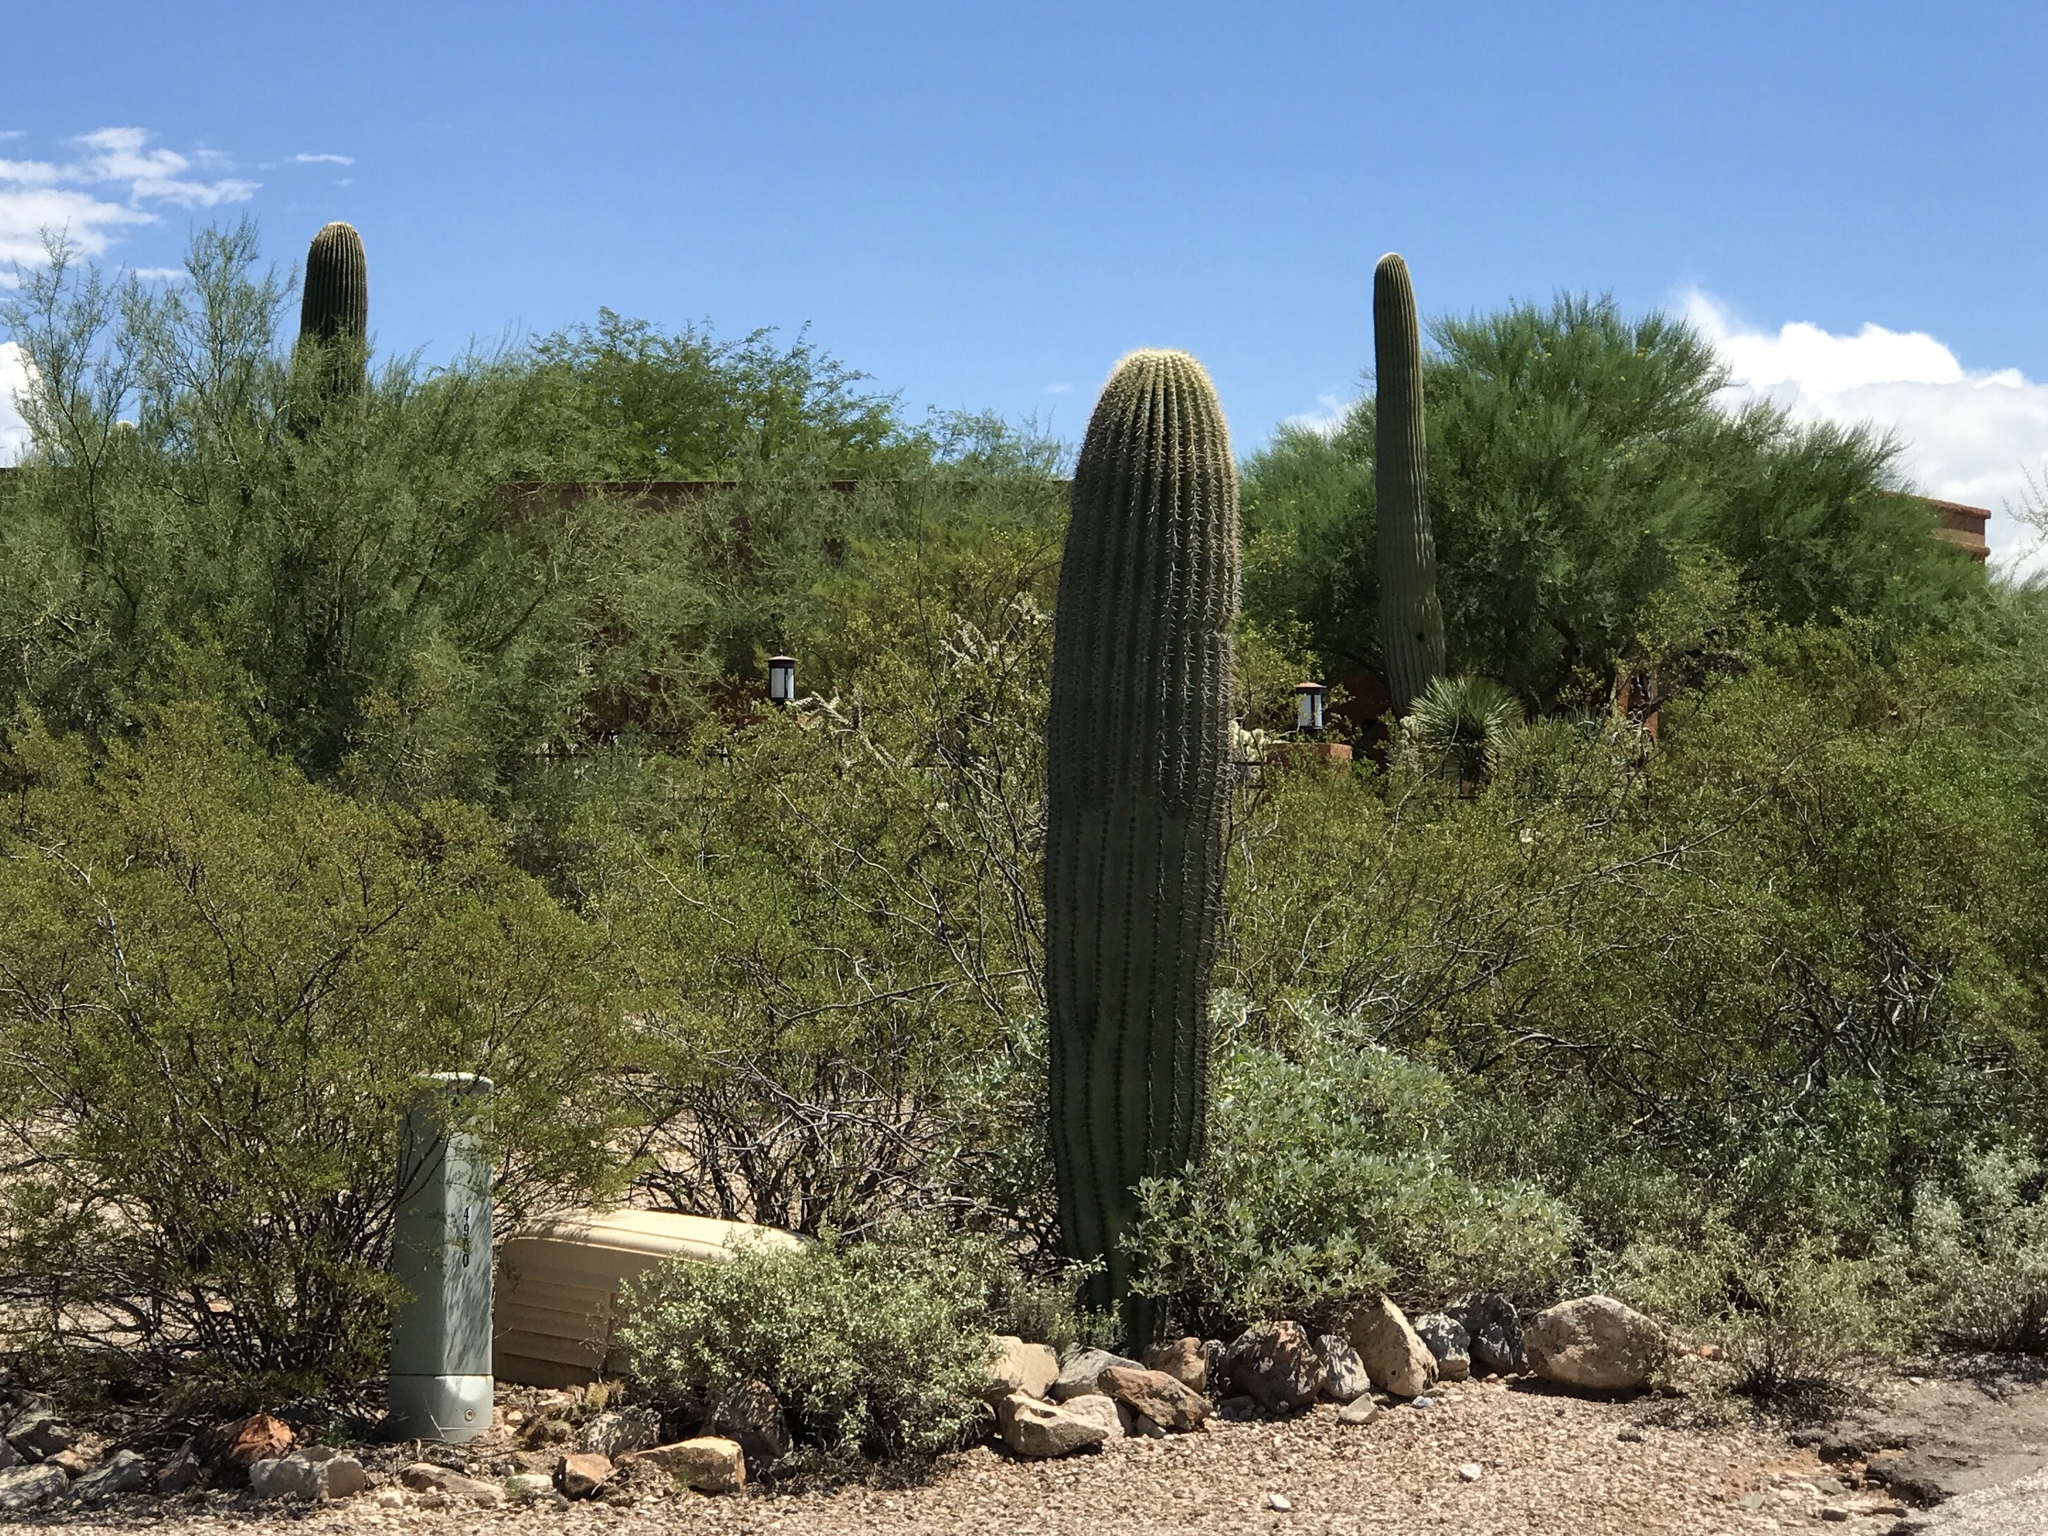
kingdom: Plantae
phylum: Tracheophyta
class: Magnoliopsida
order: Caryophyllales
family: Cactaceae
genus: Carnegiea
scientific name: Carnegiea gigantea
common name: Saguaro
